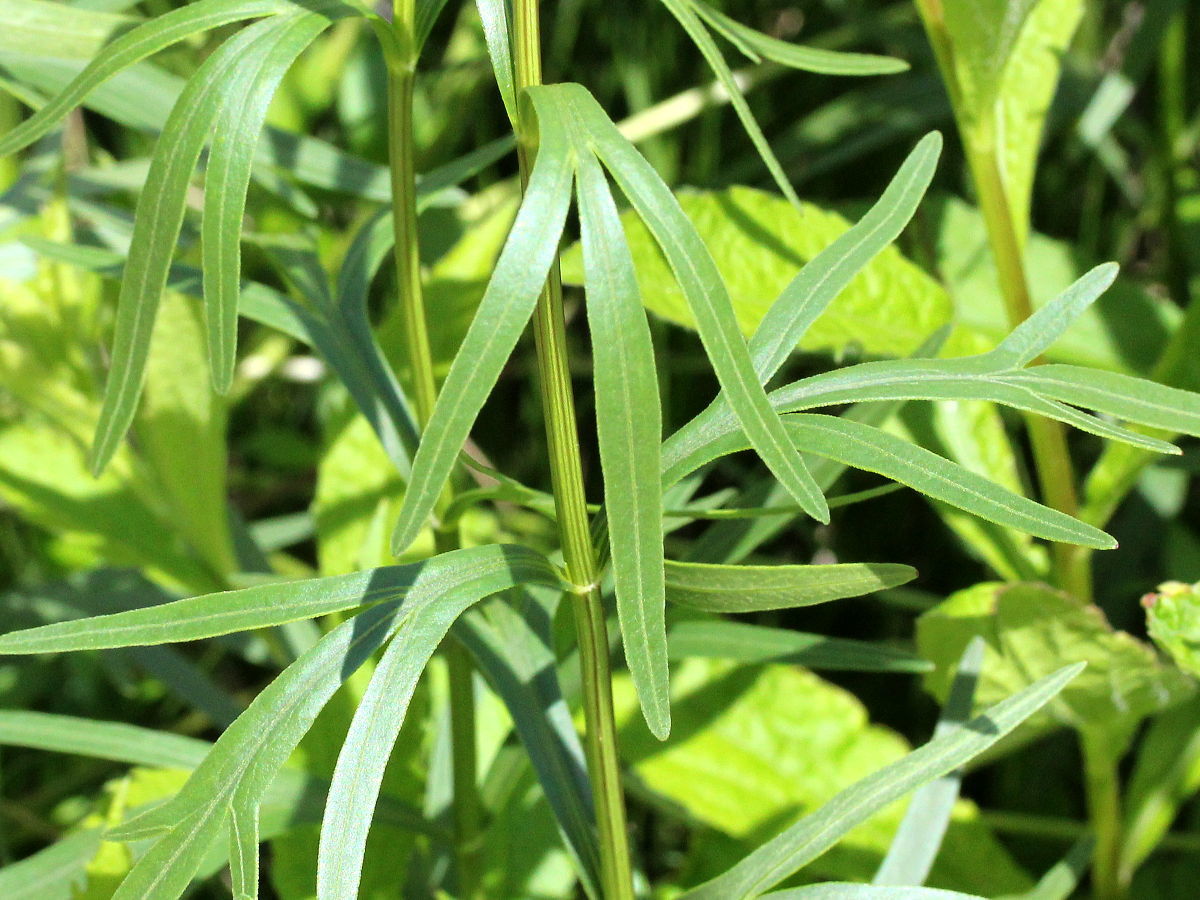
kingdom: Plantae
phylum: Tracheophyta
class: Magnoliopsida
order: Asterales
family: Asteraceae
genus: Coreopsis
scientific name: Coreopsis palmata
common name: Prairie coreopsis
